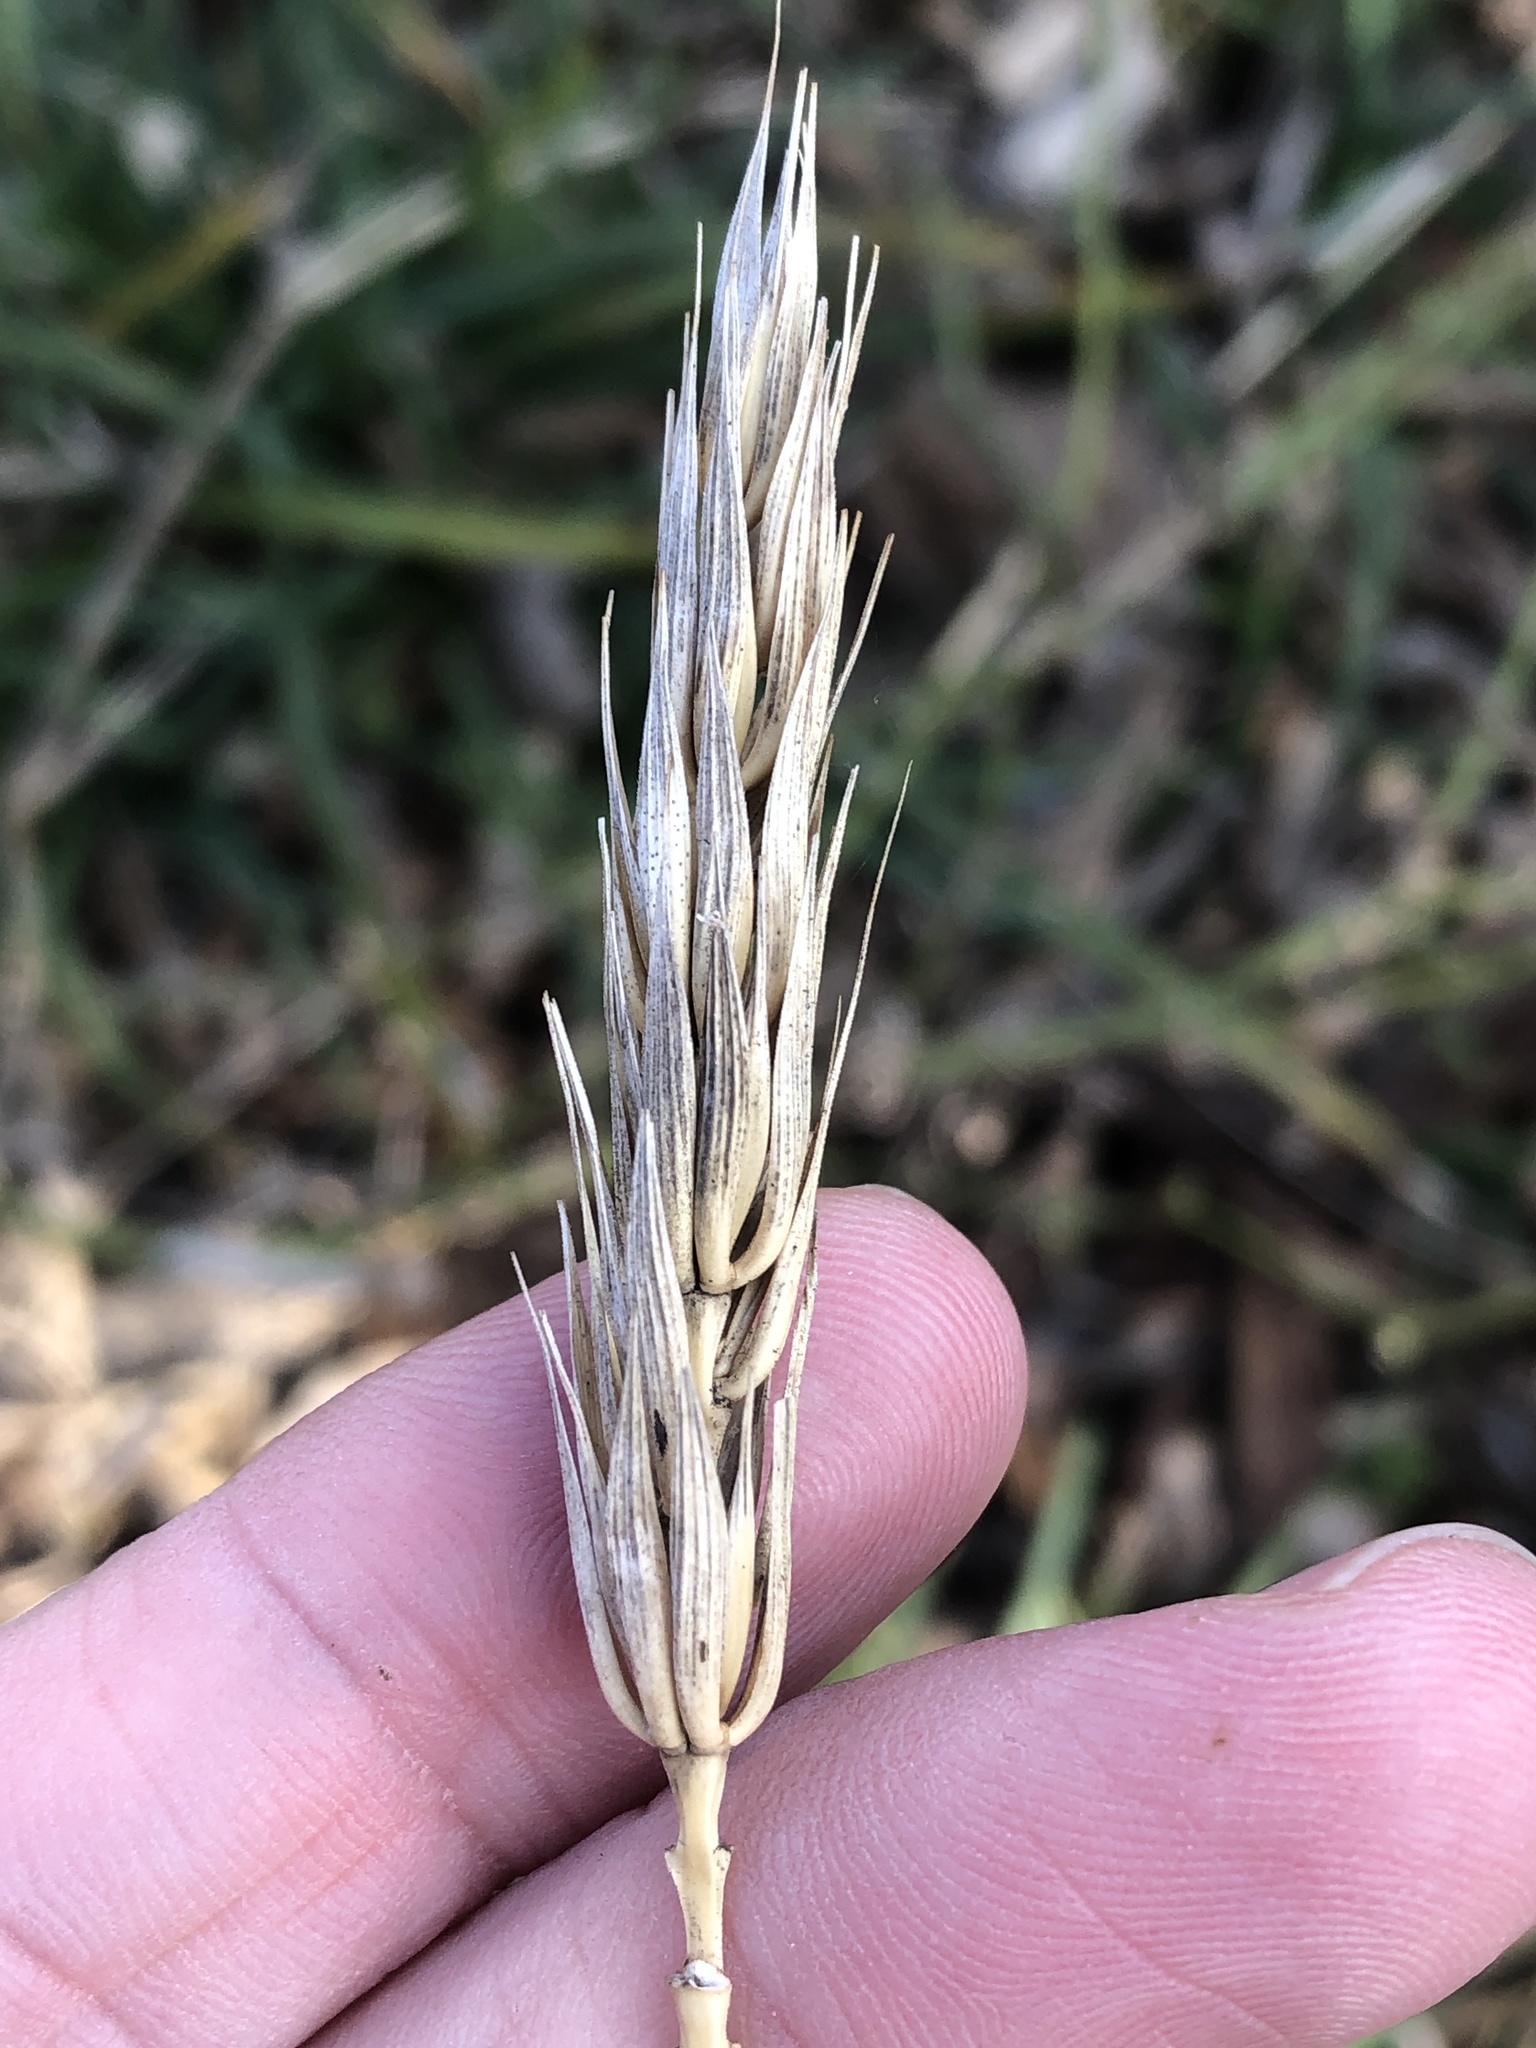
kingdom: Plantae
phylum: Tracheophyta
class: Liliopsida
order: Poales
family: Poaceae
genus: Elymus
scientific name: Elymus virginicus
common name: Common eastern wildrye
